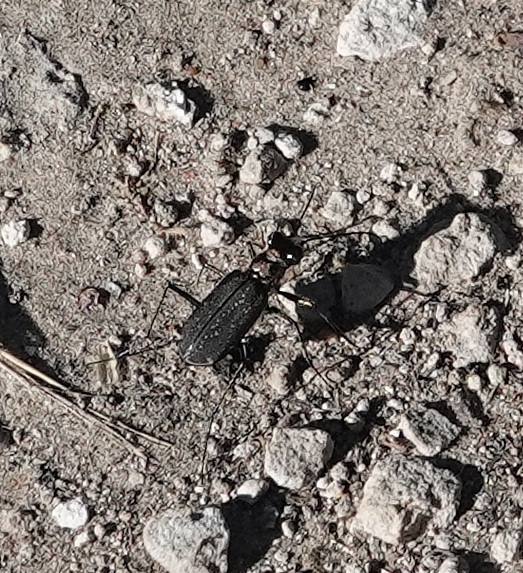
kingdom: Animalia
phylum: Arthropoda
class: Insecta
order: Coleoptera
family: Carabidae
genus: Cicindela
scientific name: Cicindela punctulata
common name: Punctured tiger beetle
